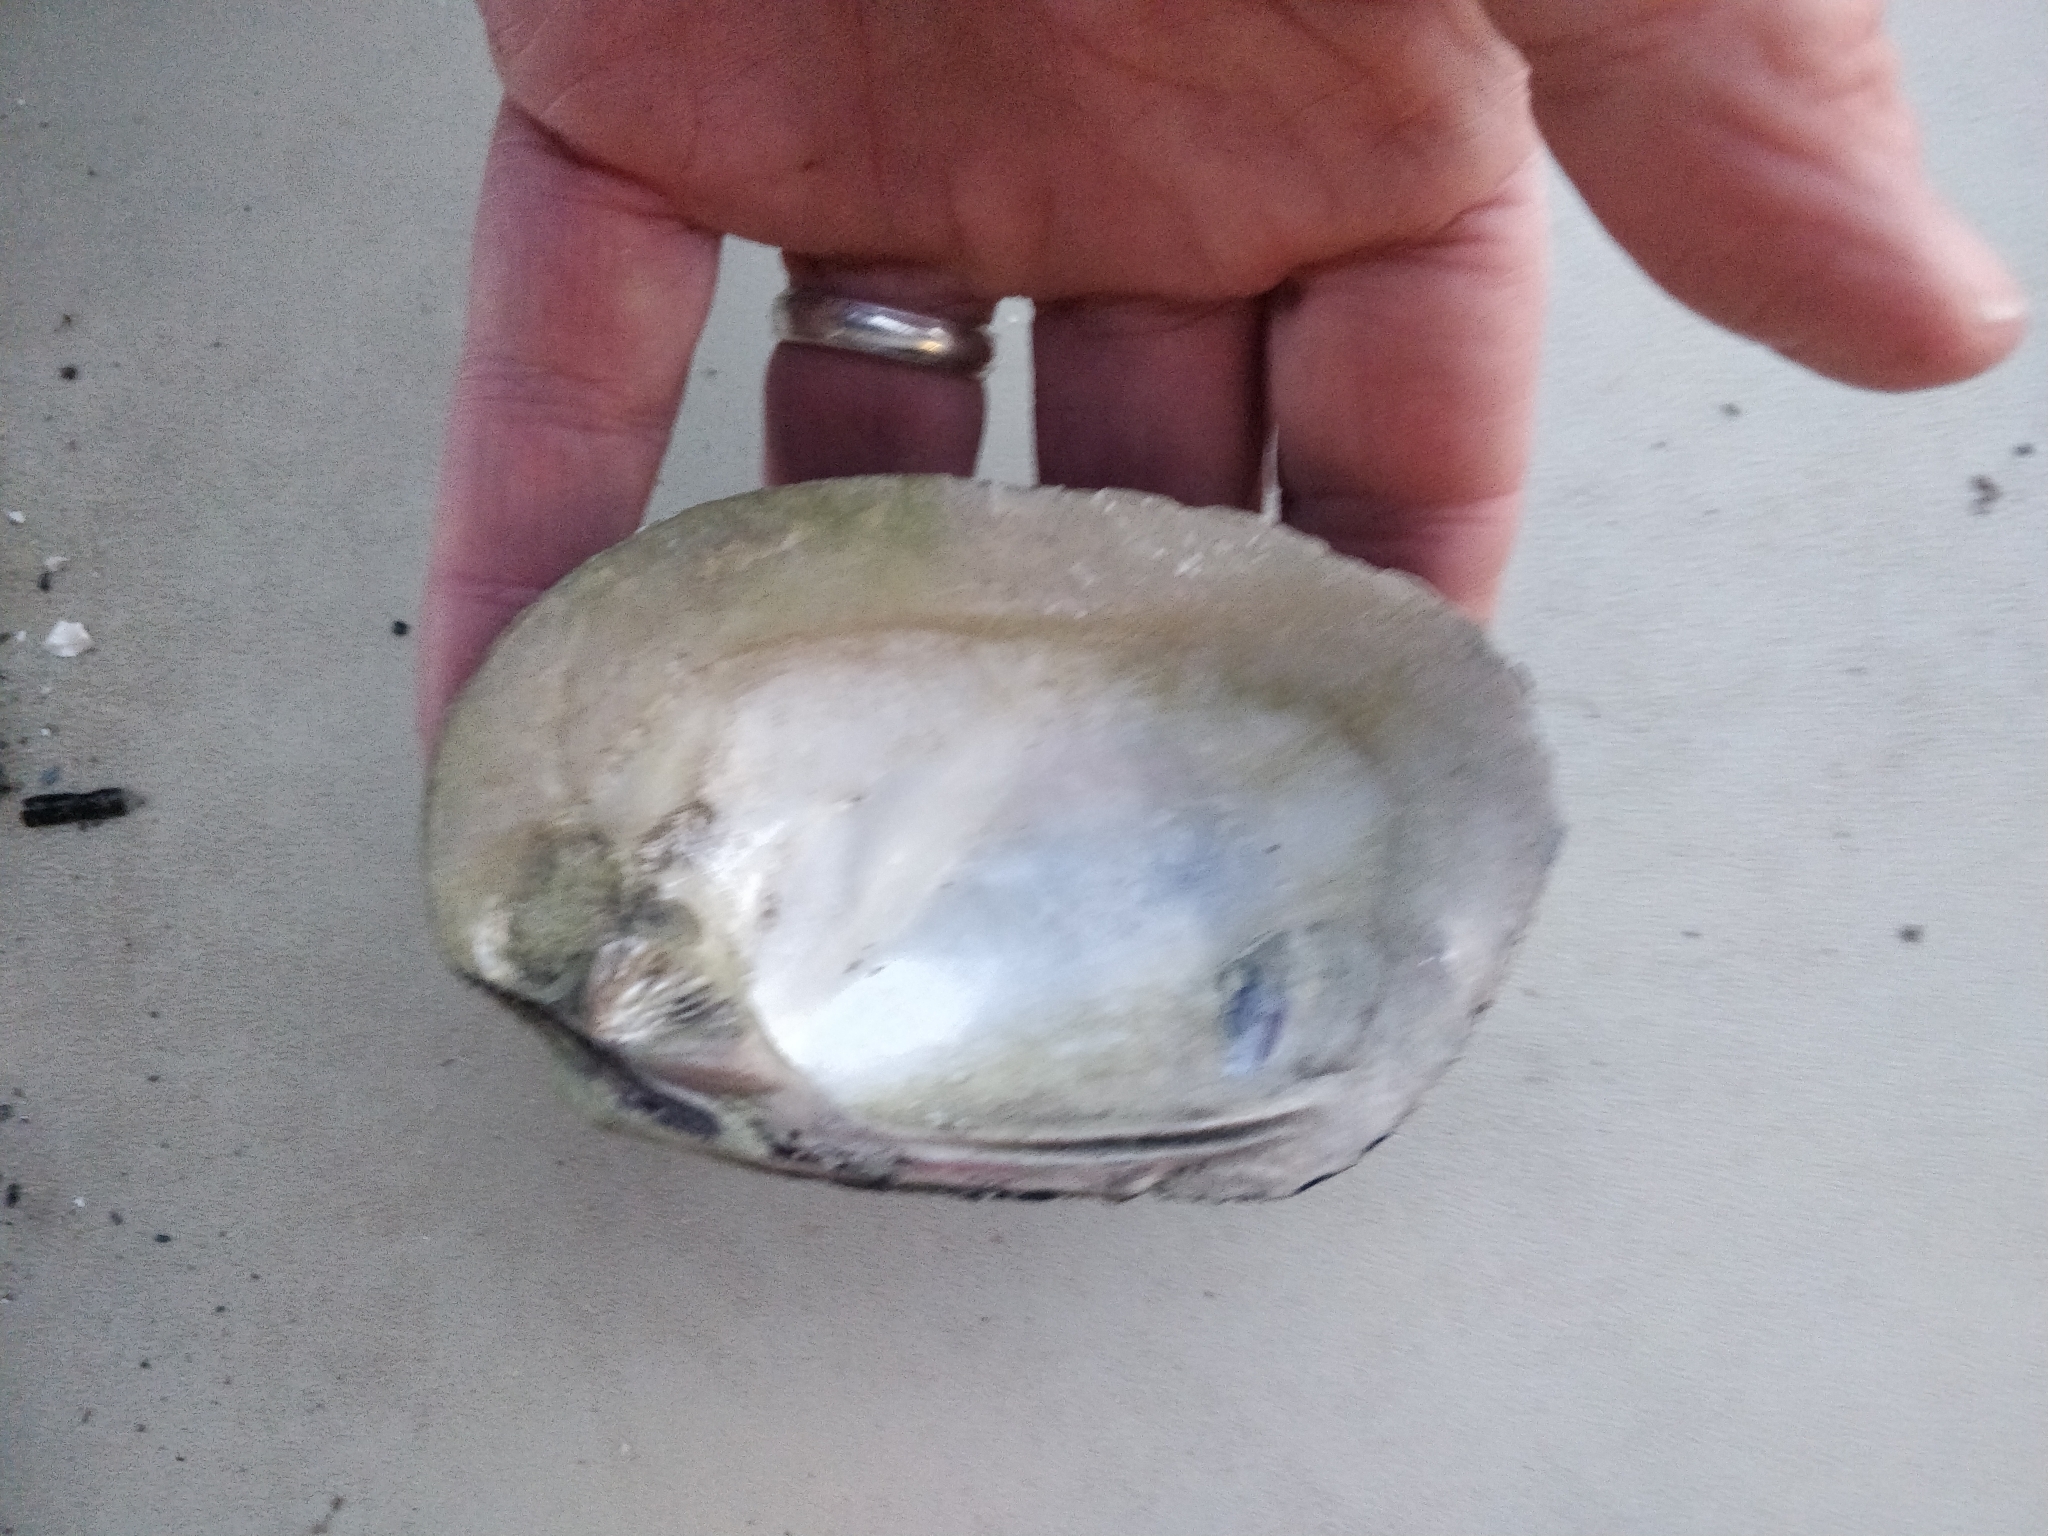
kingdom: Animalia
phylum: Mollusca
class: Bivalvia
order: Unionida
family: Unionidae
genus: Amblema
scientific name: Amblema plicata
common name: Threeridge
